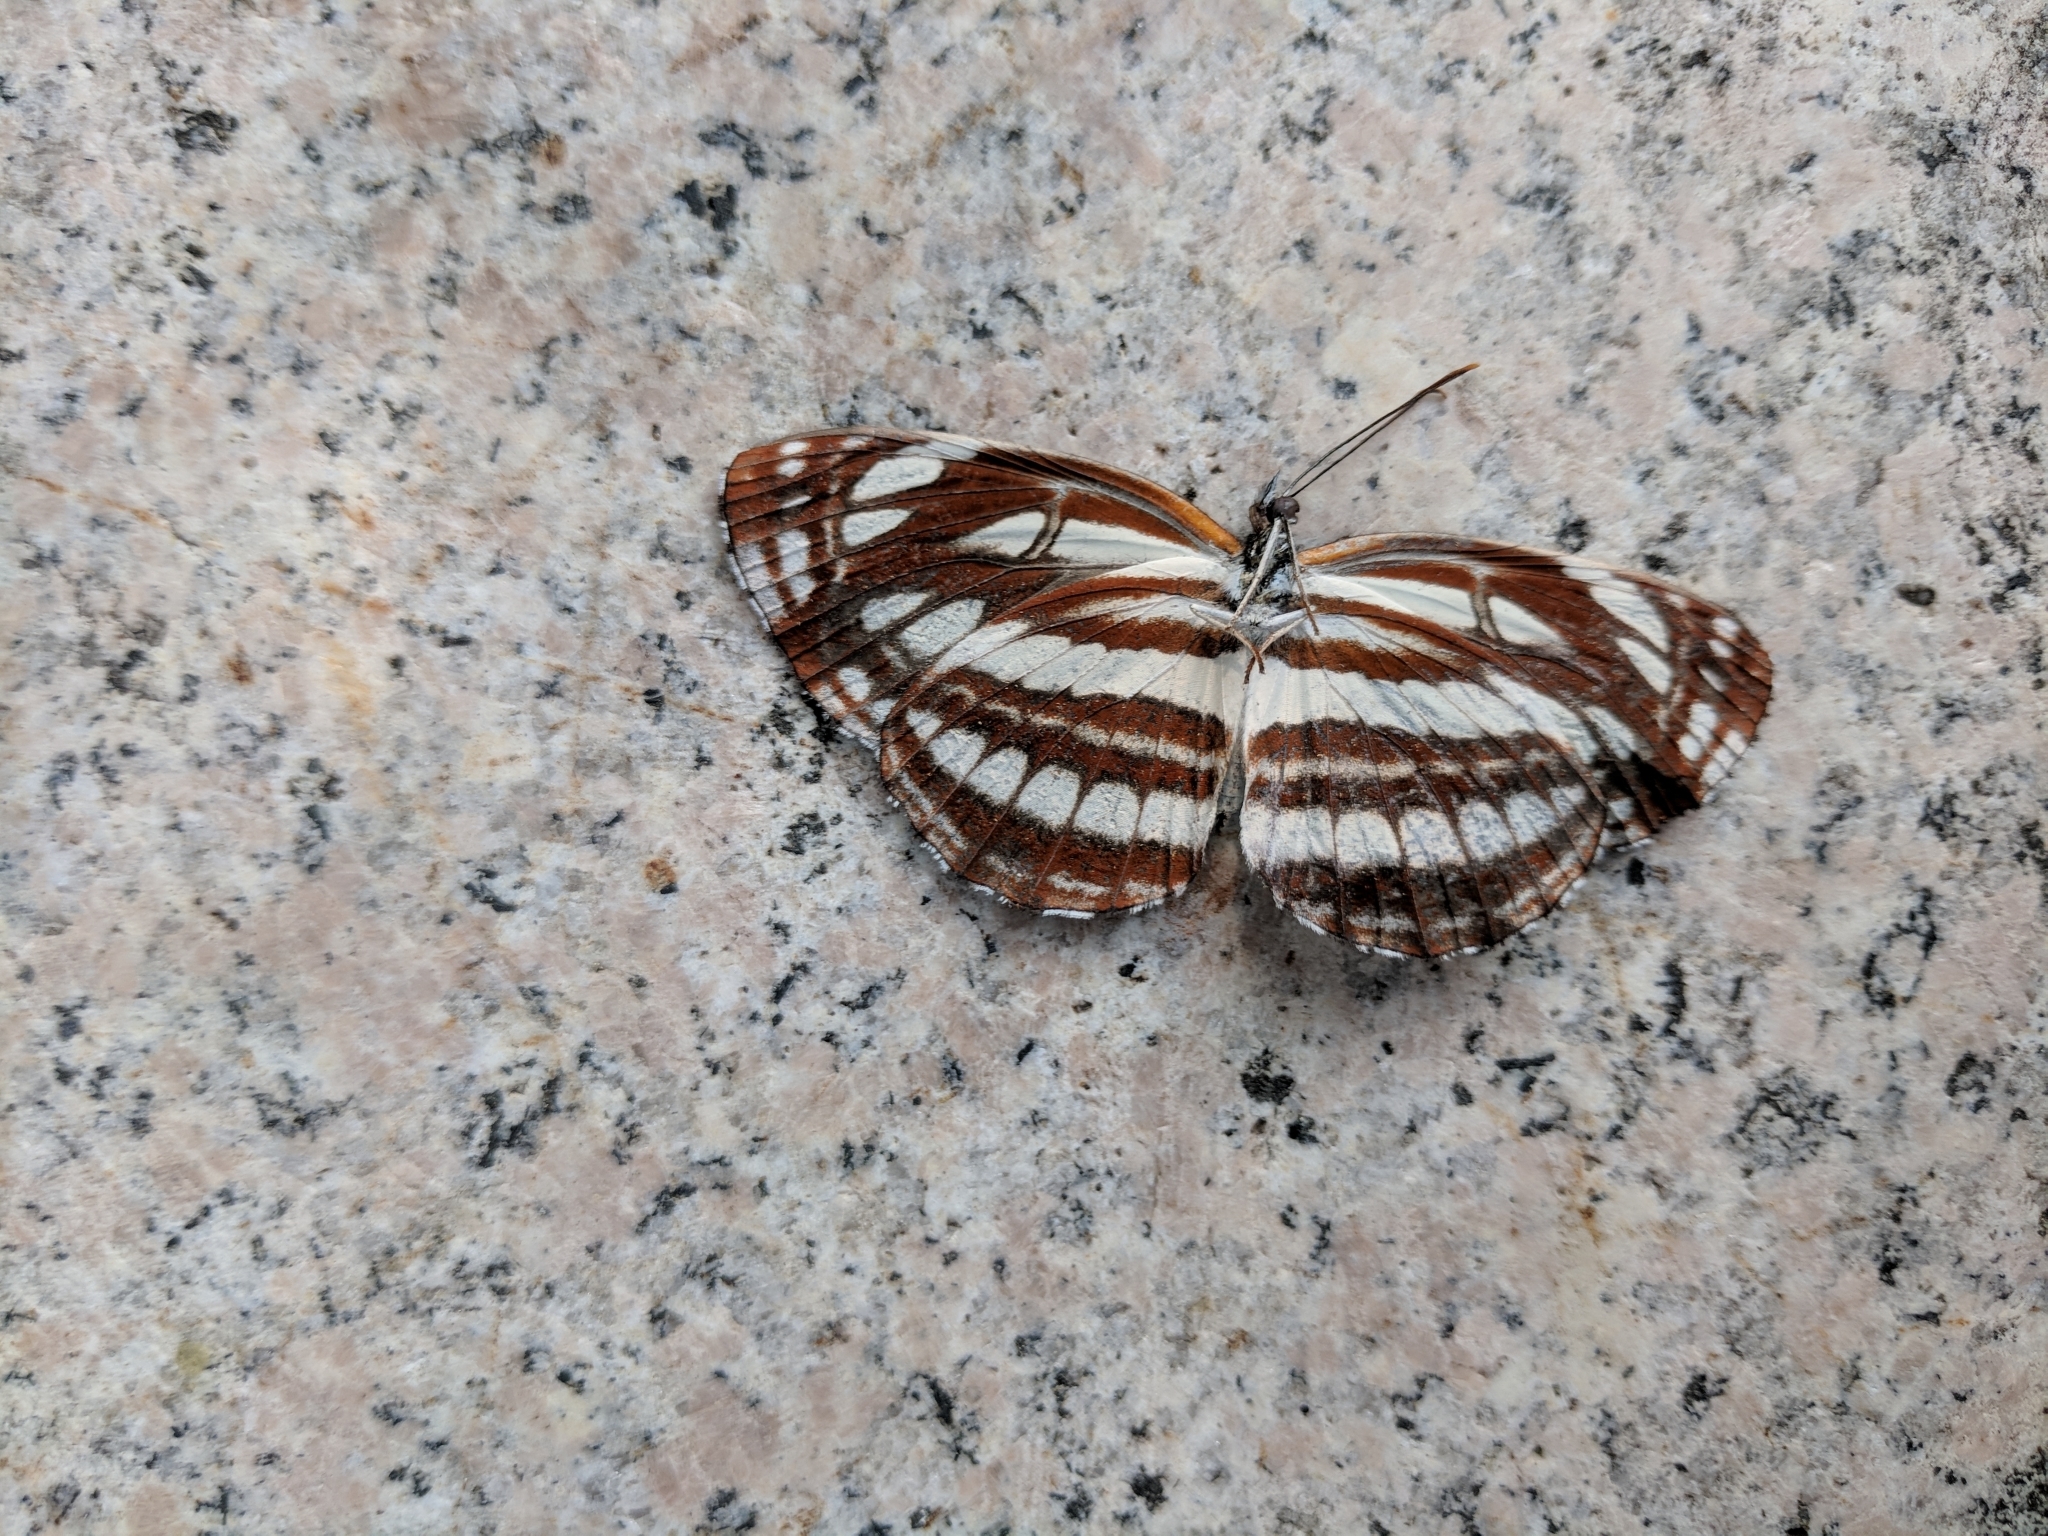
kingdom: Animalia
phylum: Arthropoda
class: Insecta
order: Lepidoptera
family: Nymphalidae
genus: Neptis
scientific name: Neptis sappho
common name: Common glider
